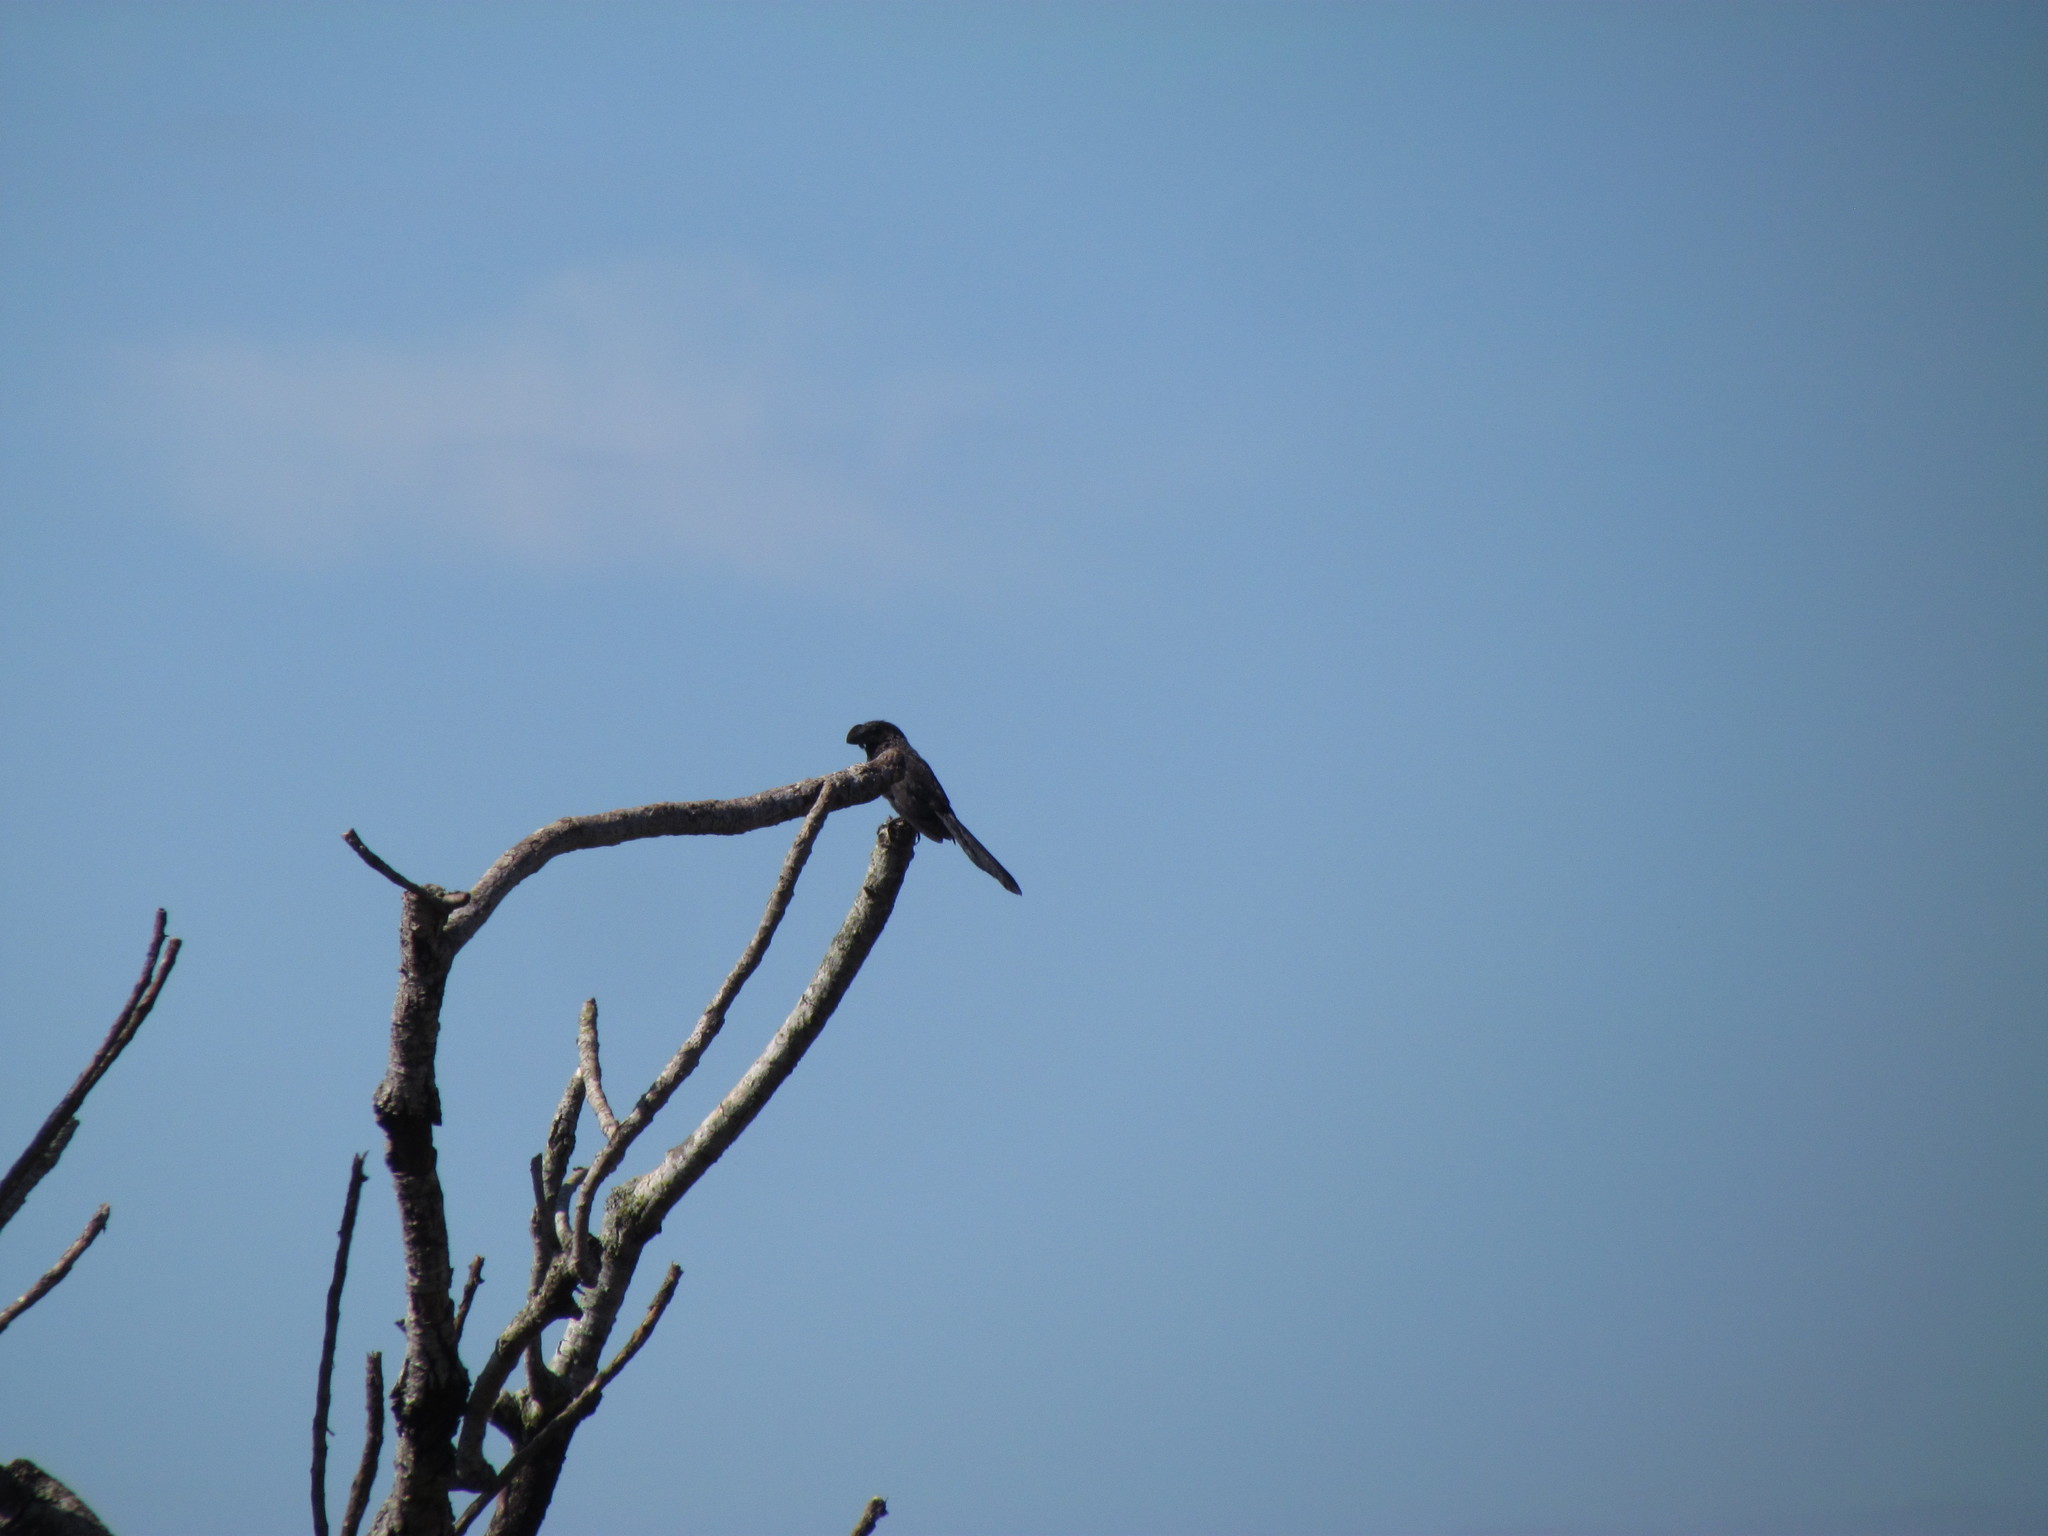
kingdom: Animalia
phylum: Chordata
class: Aves
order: Cuculiformes
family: Cuculidae
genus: Crotophaga
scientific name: Crotophaga ani
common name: Smooth-billed ani
